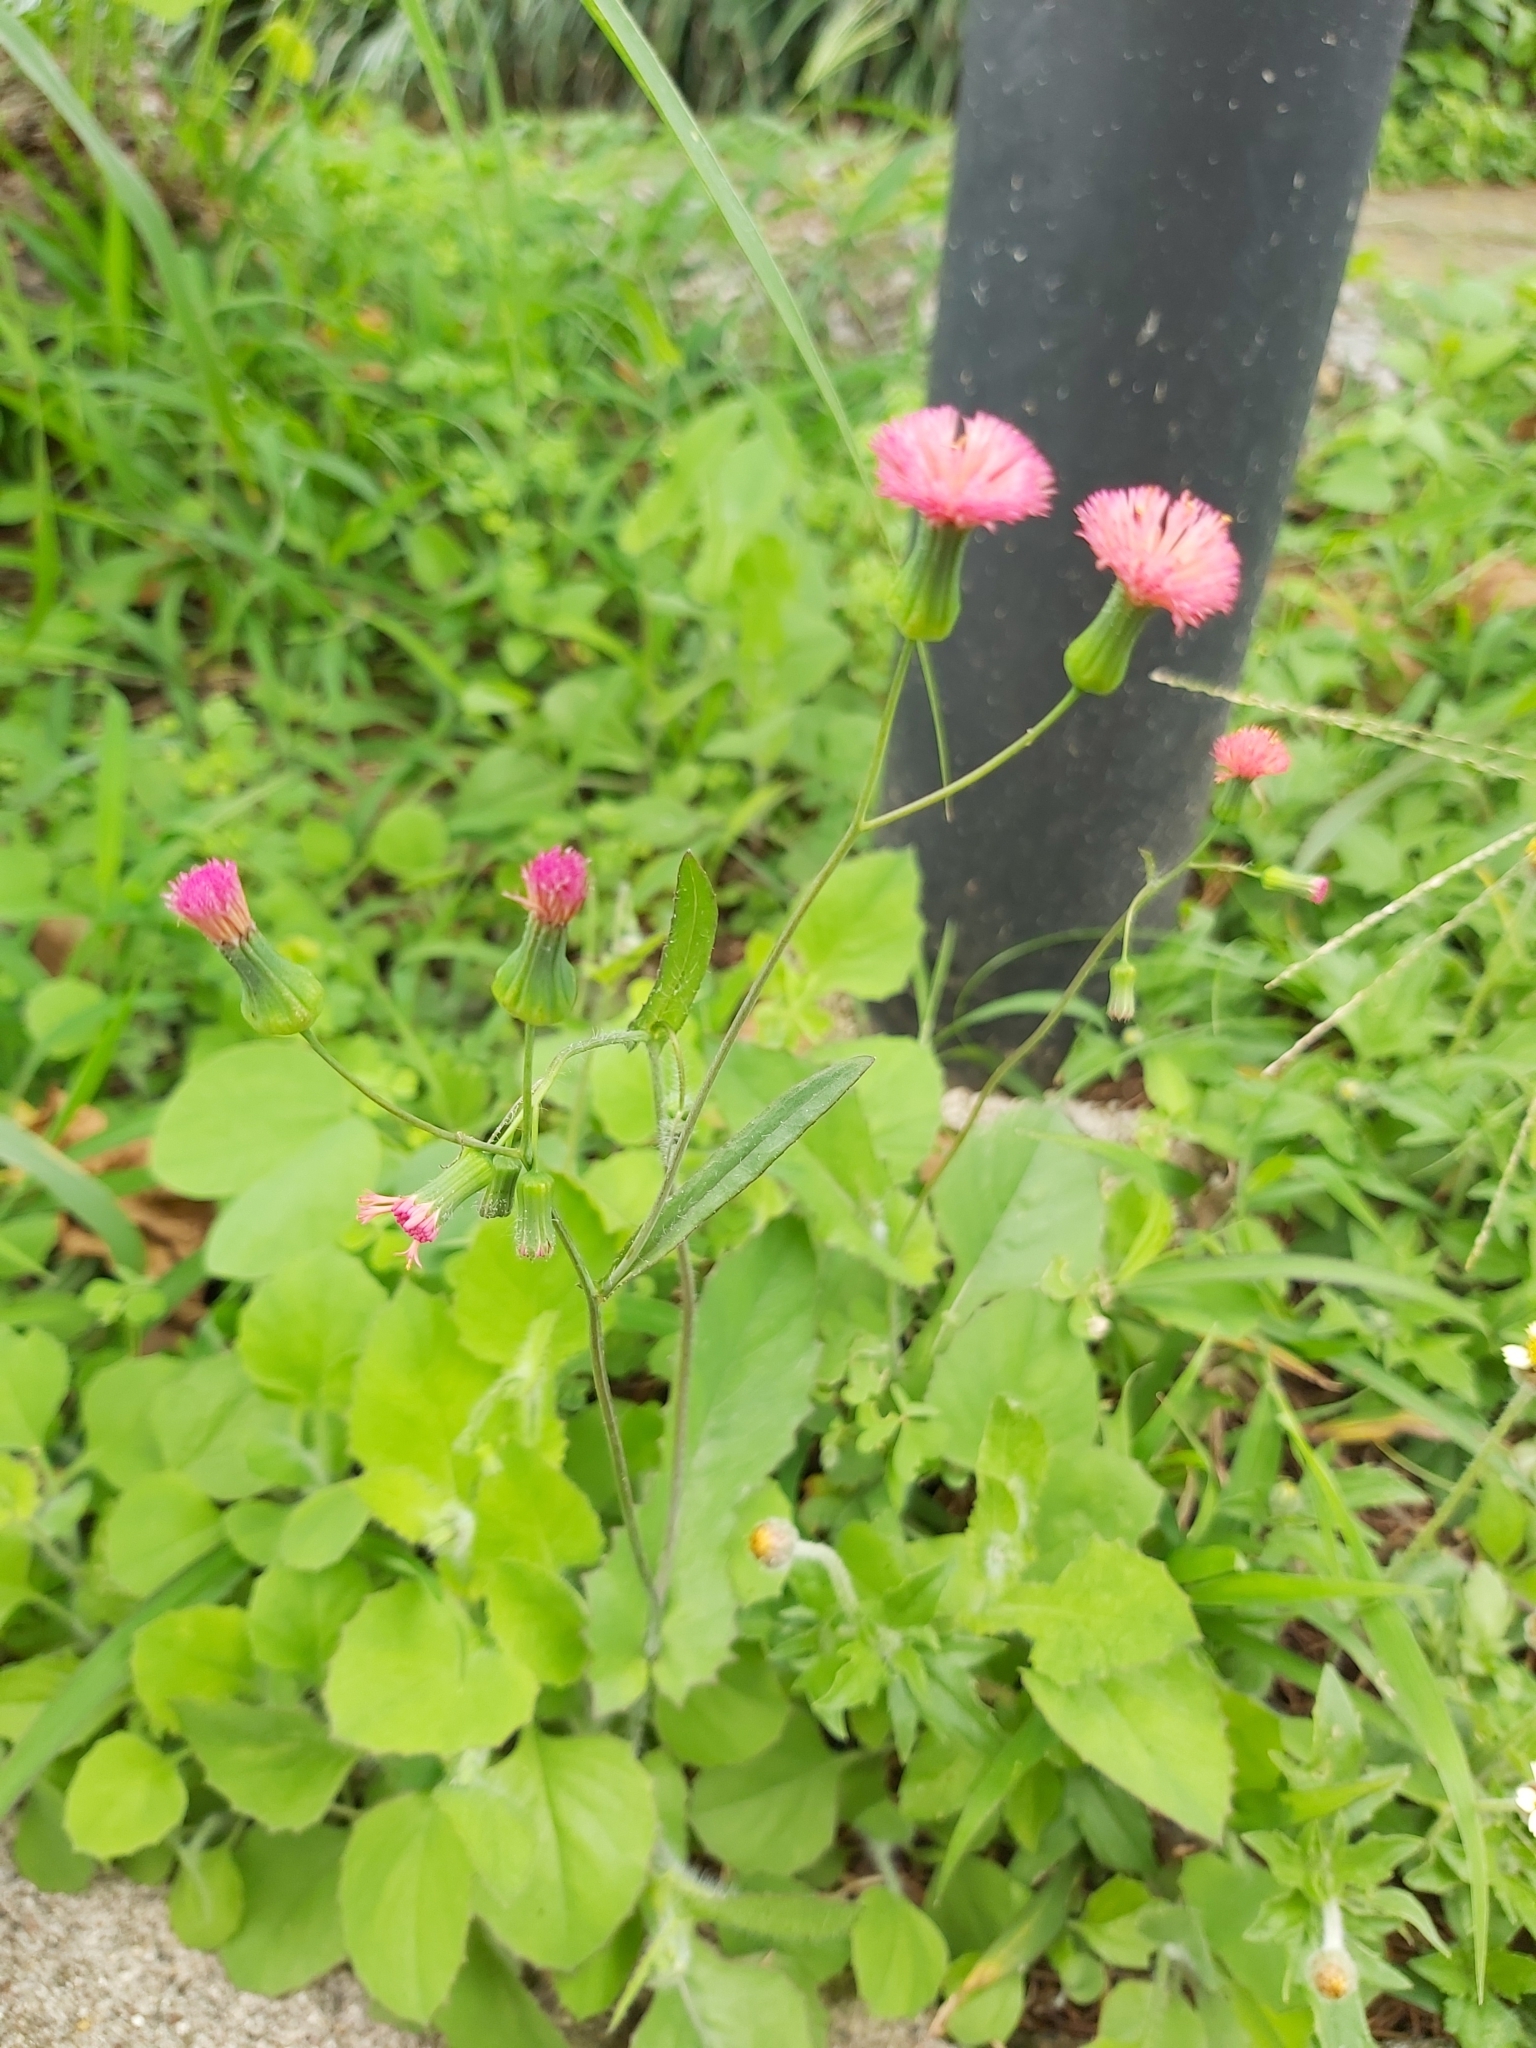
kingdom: Plantae
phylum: Tracheophyta
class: Magnoliopsida
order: Asterales
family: Asteraceae
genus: Emilia
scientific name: Emilia fosbergii
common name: Florida tasselflower
